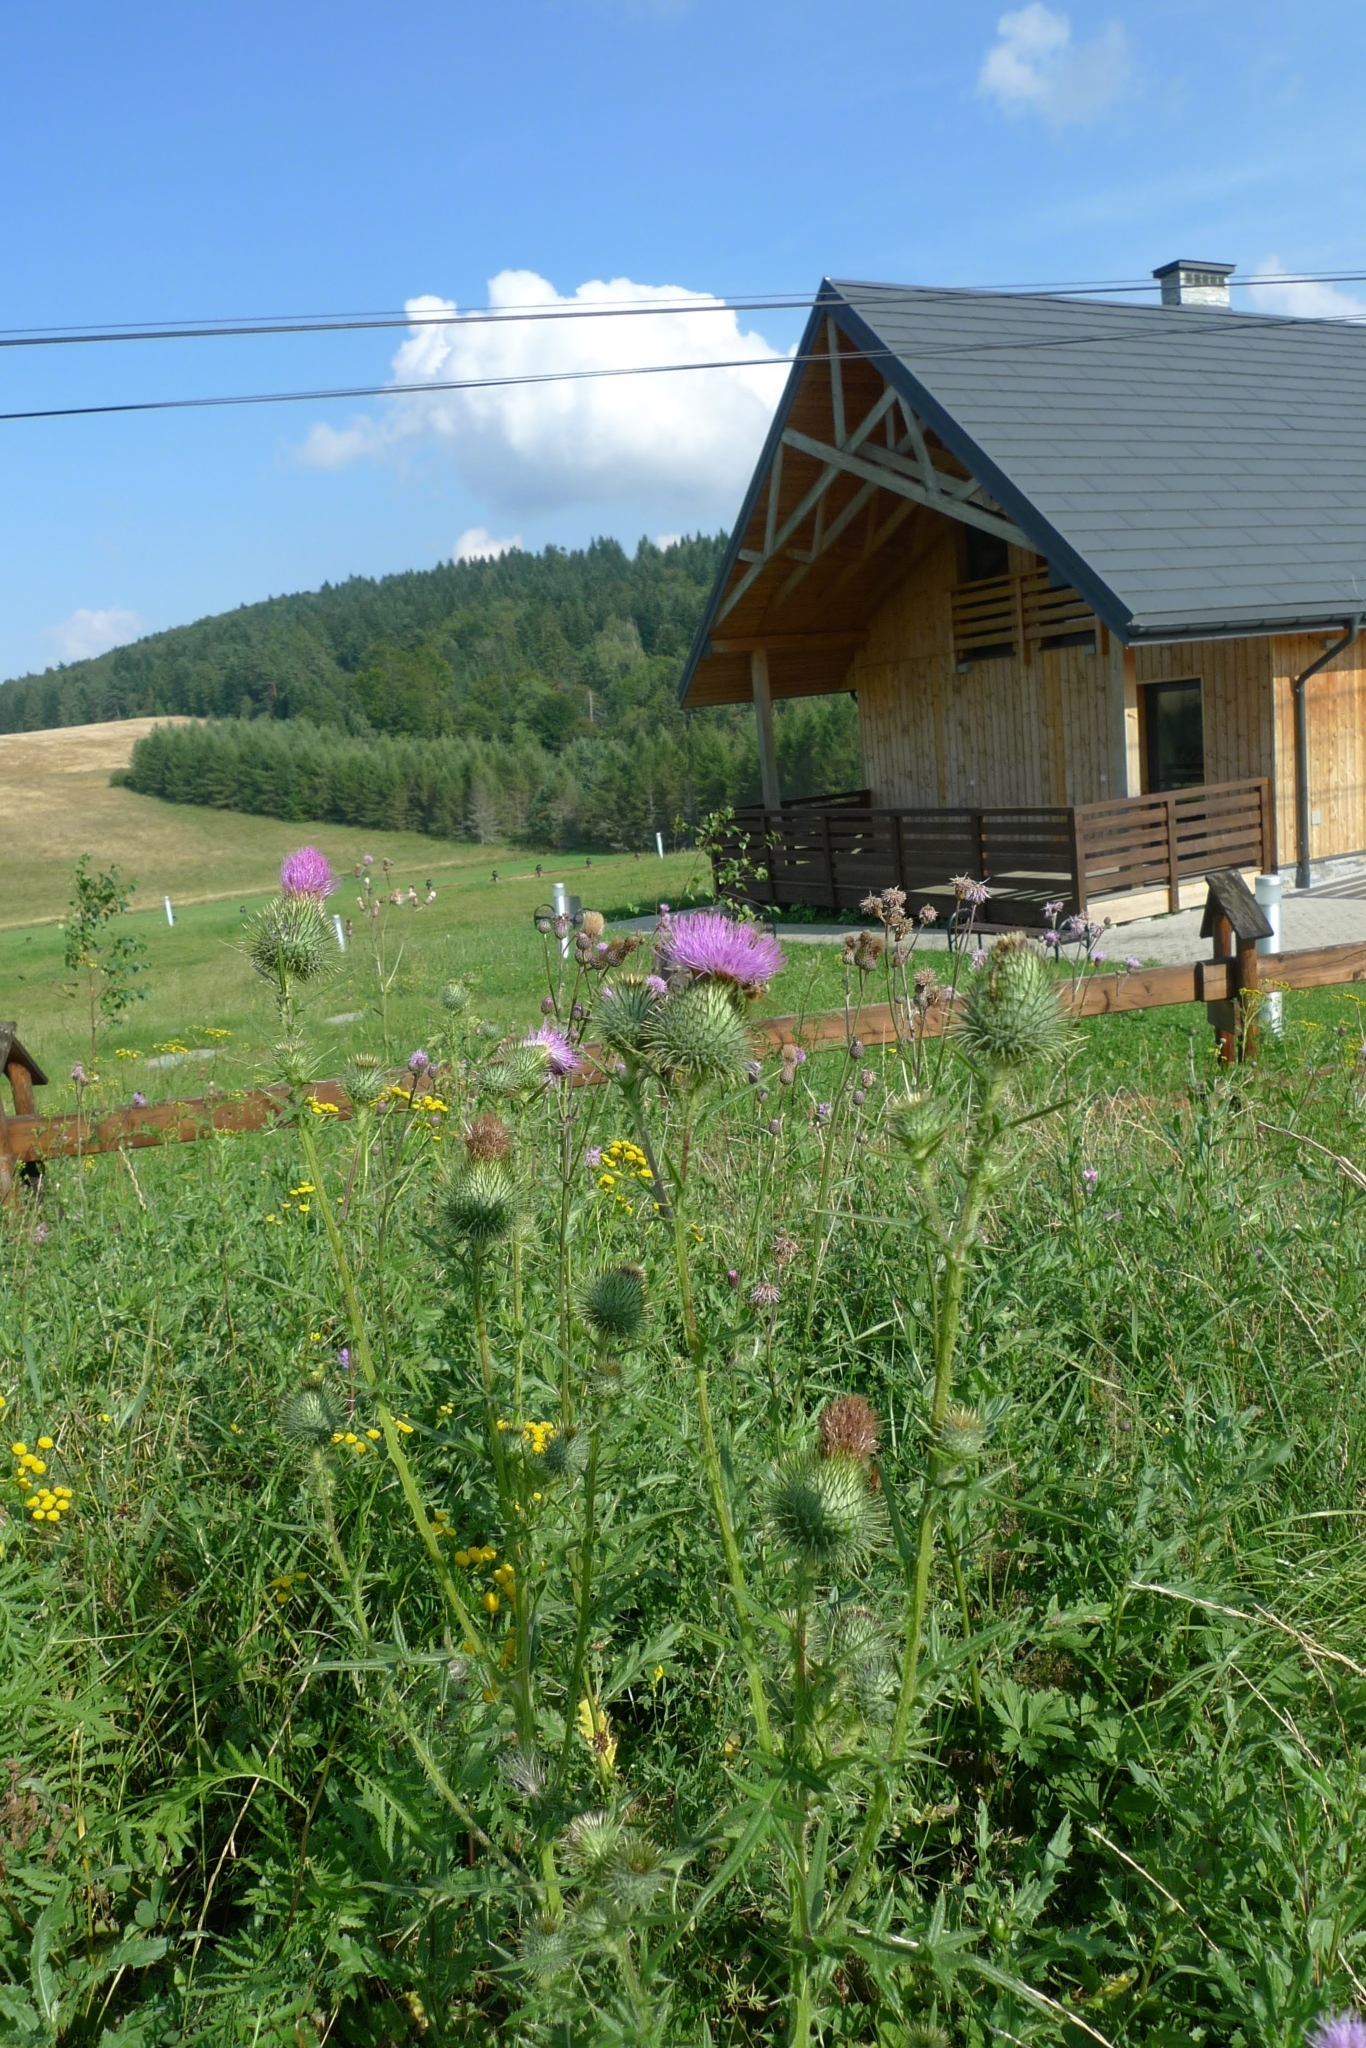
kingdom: Plantae
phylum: Tracheophyta
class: Magnoliopsida
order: Asterales
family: Asteraceae
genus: Cirsium
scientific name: Cirsium vulgare
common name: Bull thistle
